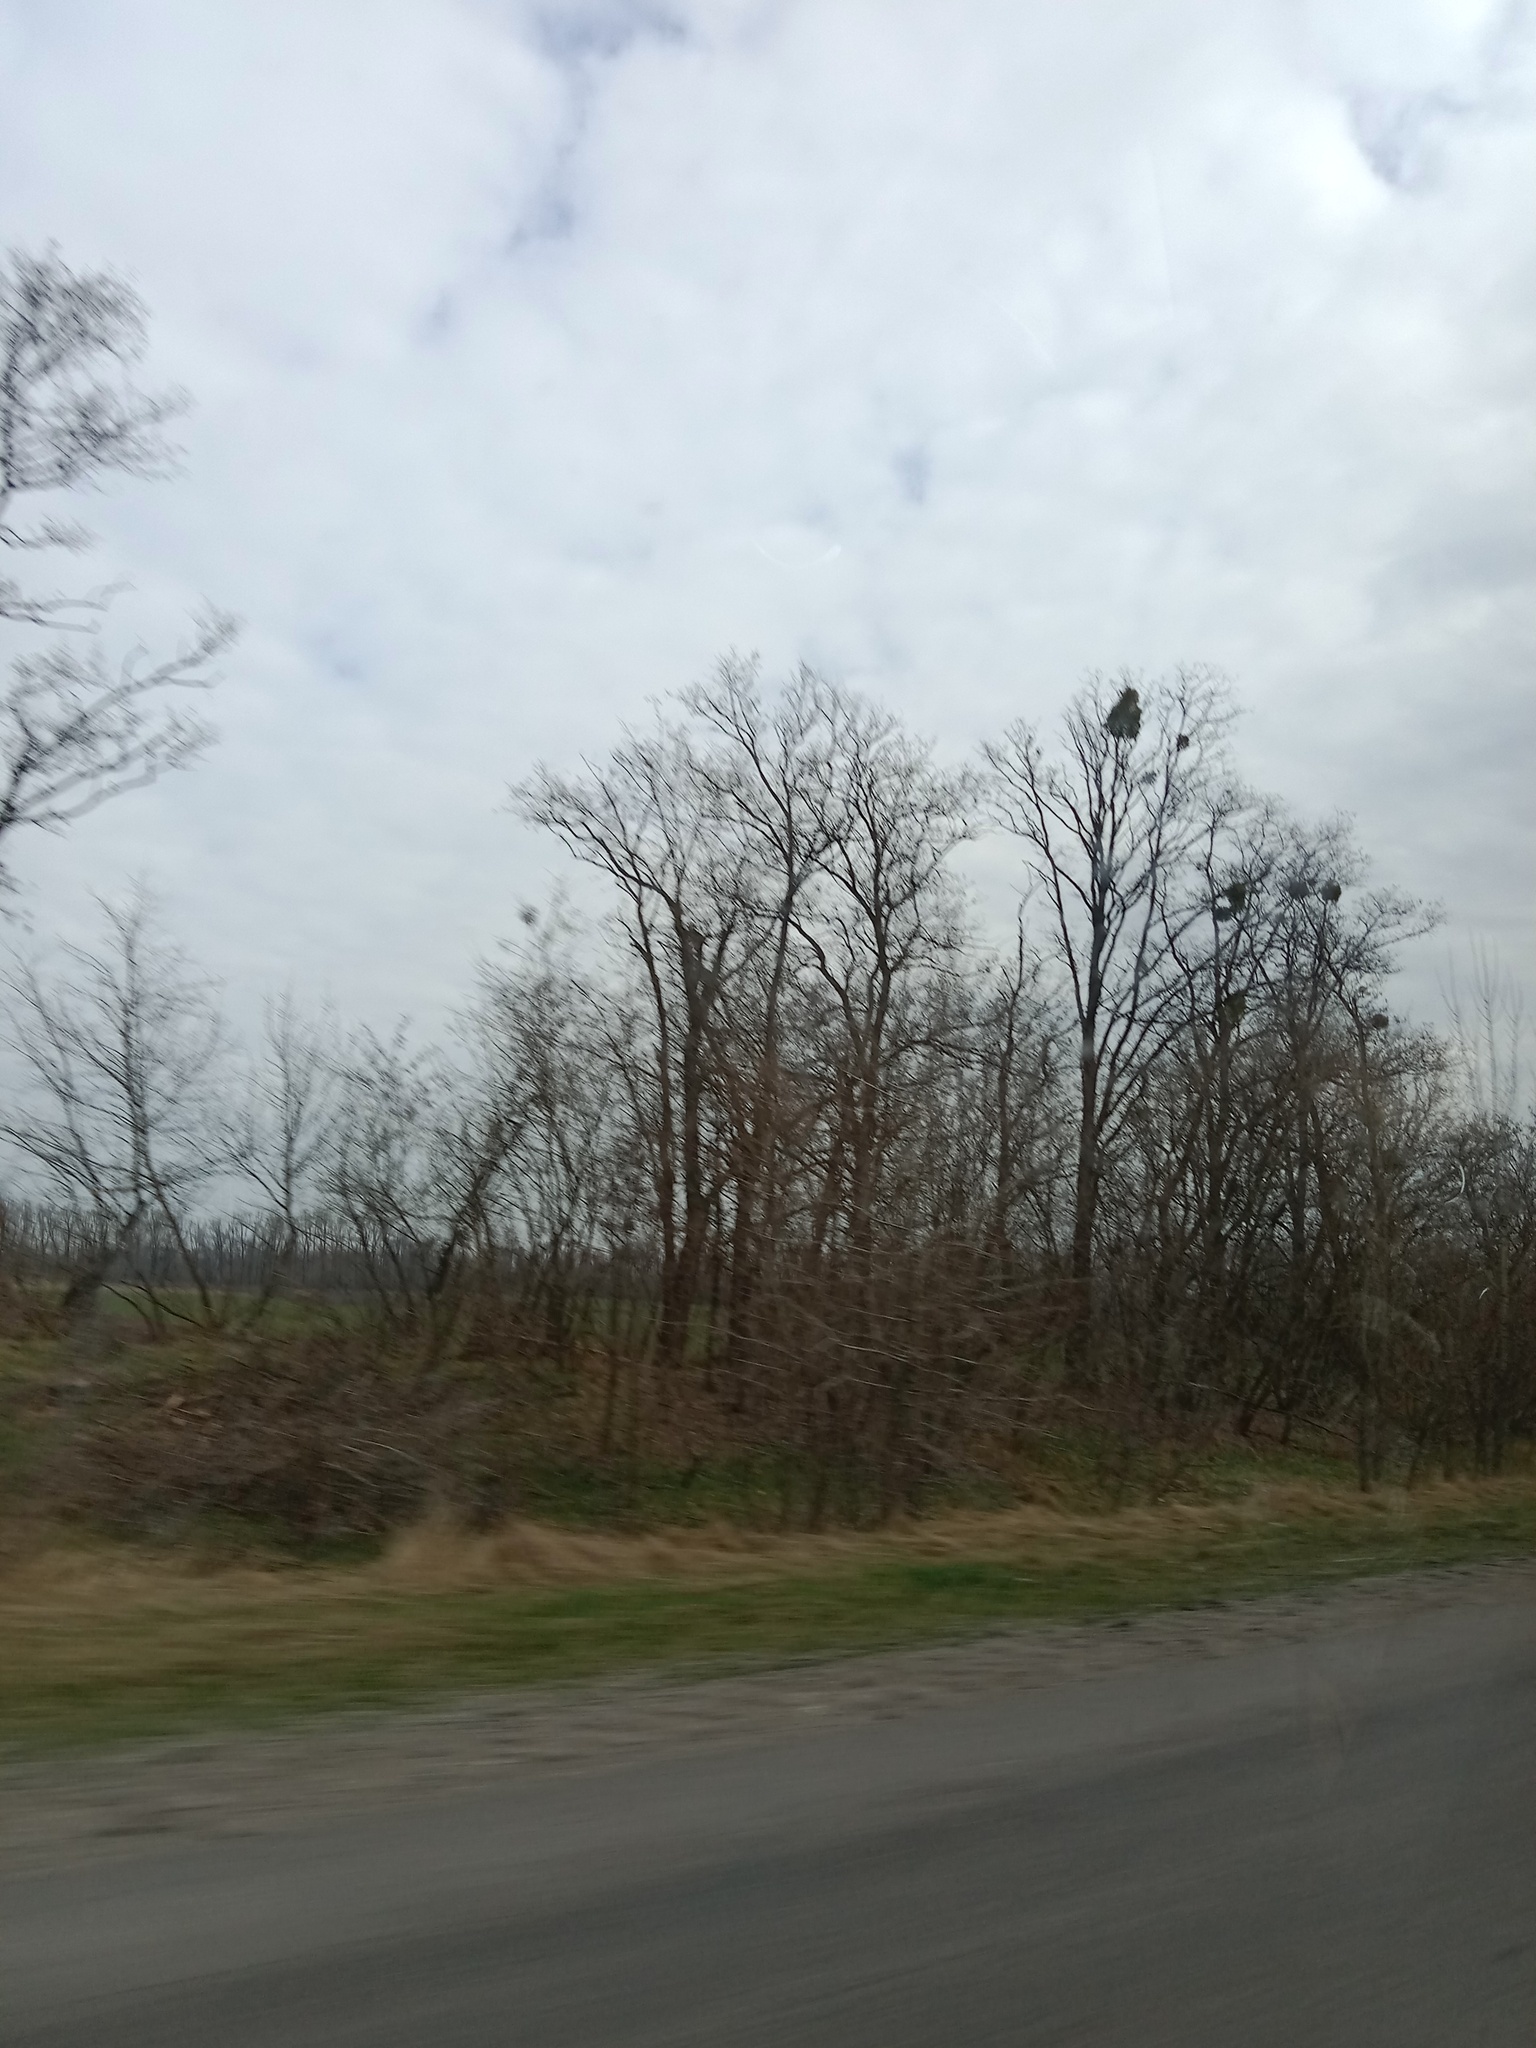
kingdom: Plantae
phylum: Tracheophyta
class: Magnoliopsida
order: Santalales
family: Viscaceae
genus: Viscum
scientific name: Viscum album
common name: Mistletoe
